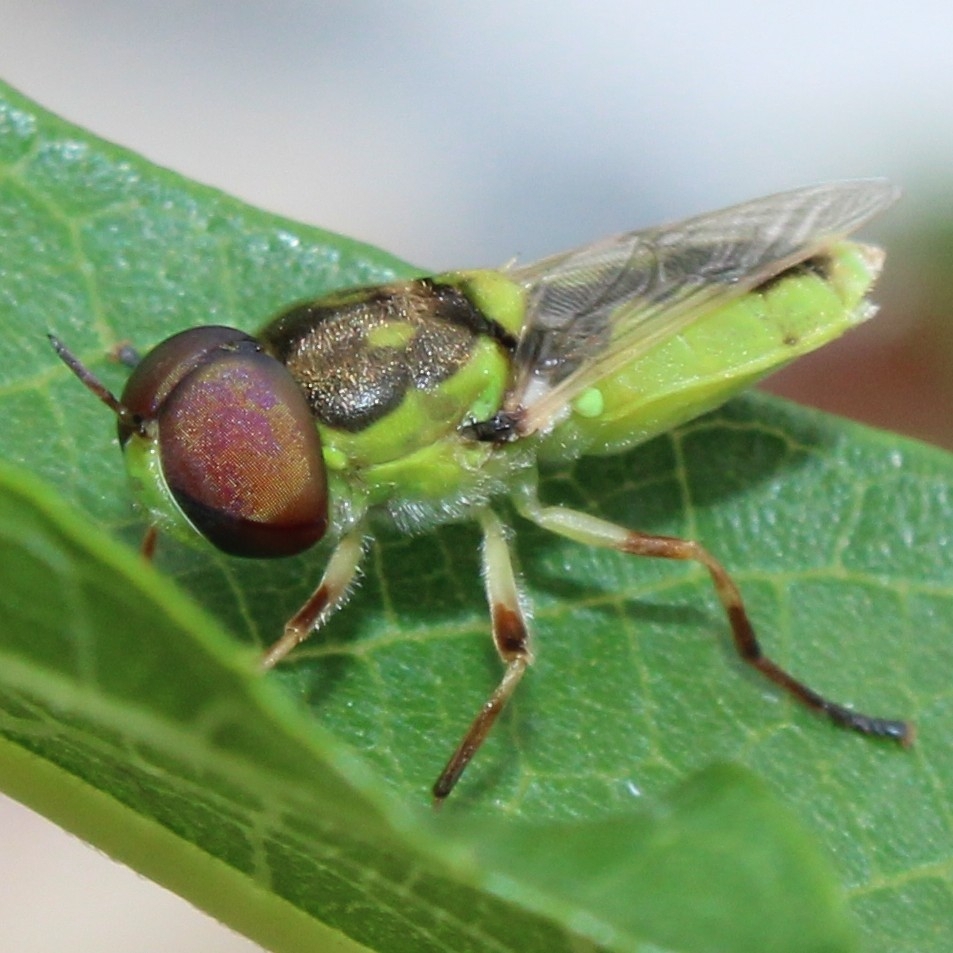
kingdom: Animalia
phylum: Arthropoda
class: Insecta
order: Diptera
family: Stratiomyidae
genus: Hedriodiscus
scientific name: Hedriodiscus binotatus
